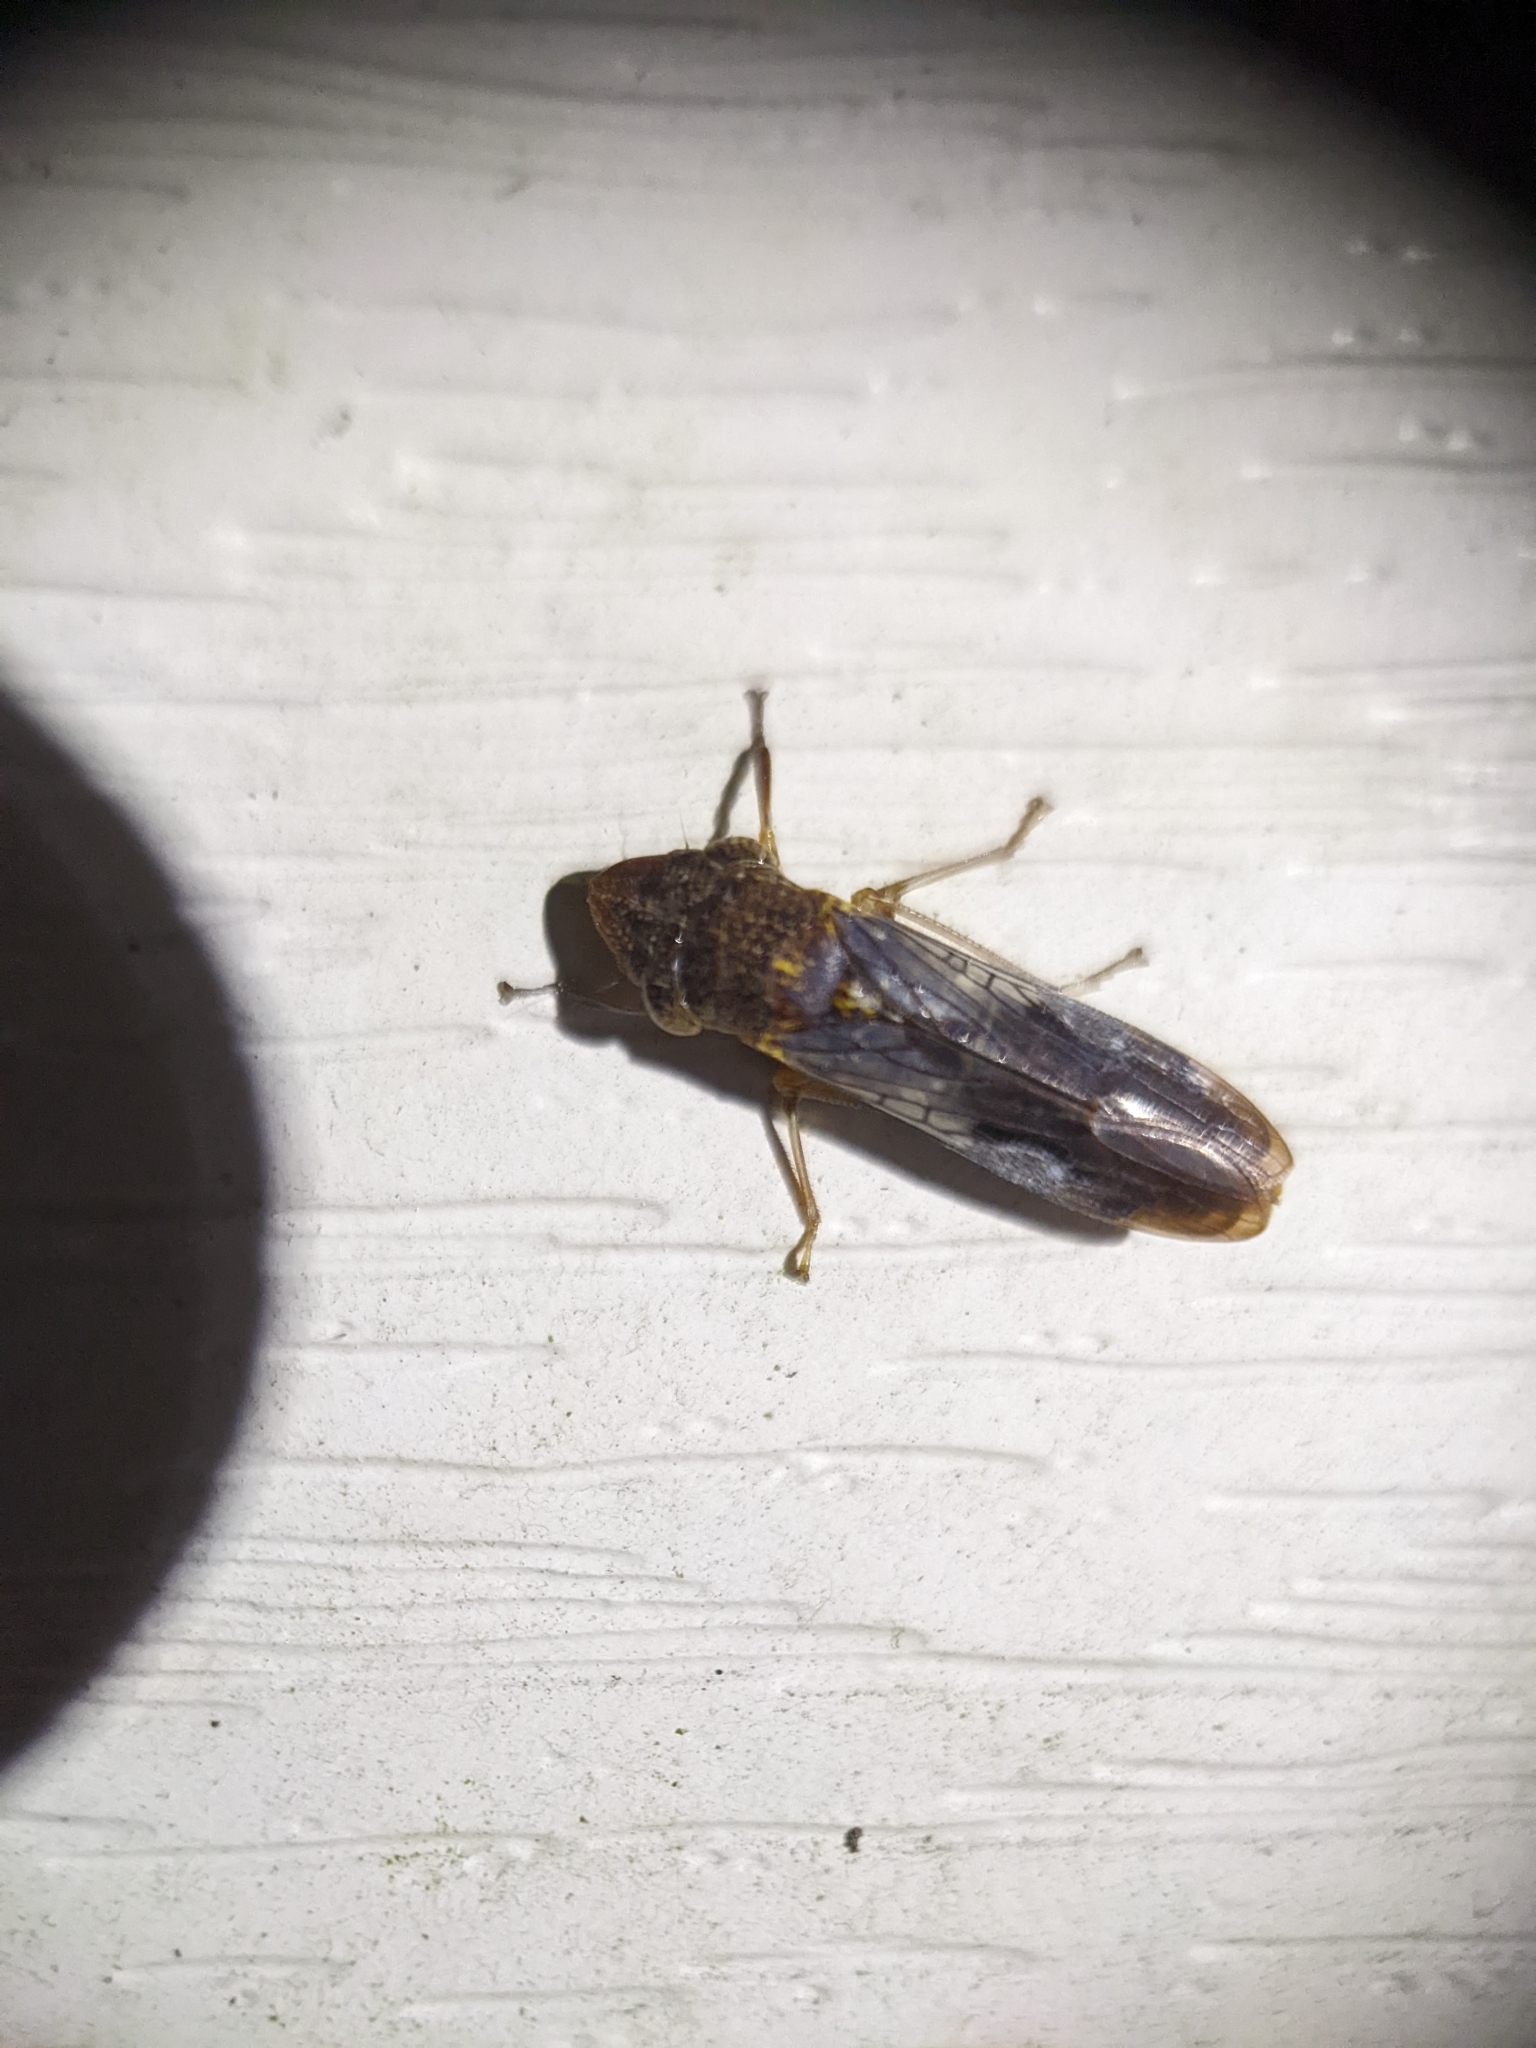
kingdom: Animalia
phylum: Arthropoda
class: Insecta
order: Hemiptera
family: Cicadellidae
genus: Homalodisca
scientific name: Homalodisca vitripennis
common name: Glassy-winged sharpshooter
